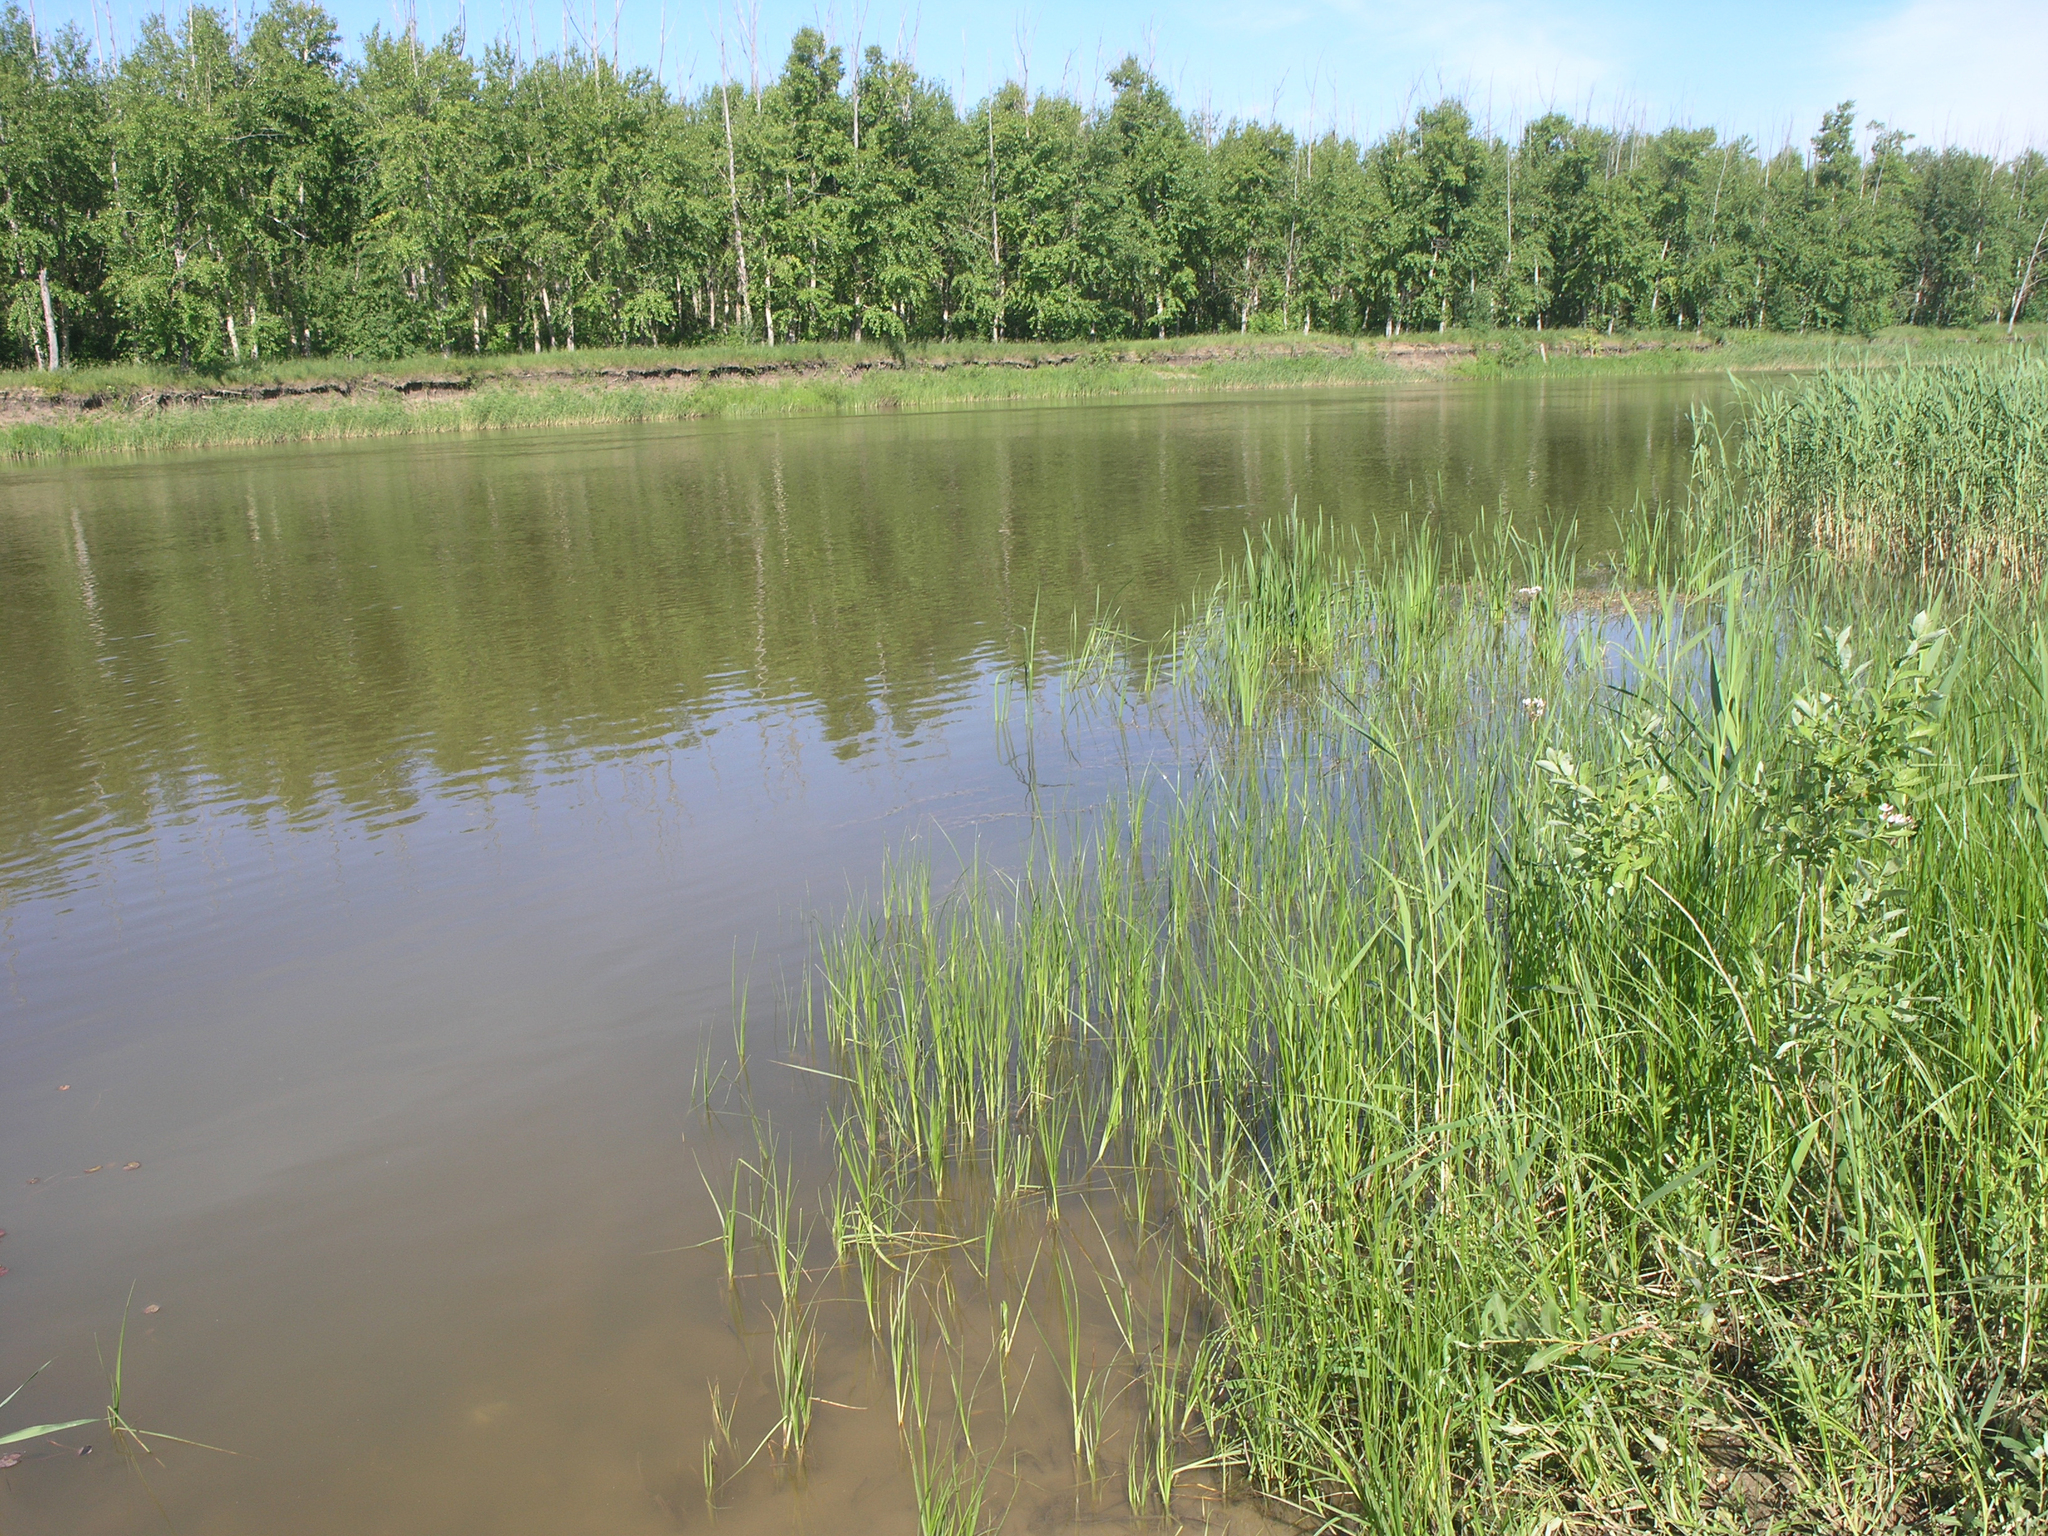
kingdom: Plantae
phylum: Tracheophyta
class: Liliopsida
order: Poales
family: Poaceae
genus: Phragmites
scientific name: Phragmites australis
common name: Common reed
